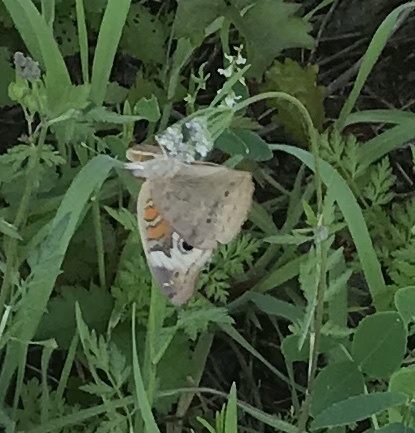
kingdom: Animalia
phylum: Arthropoda
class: Insecta
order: Lepidoptera
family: Nymphalidae
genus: Junonia
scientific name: Junonia coenia
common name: Common buckeye
